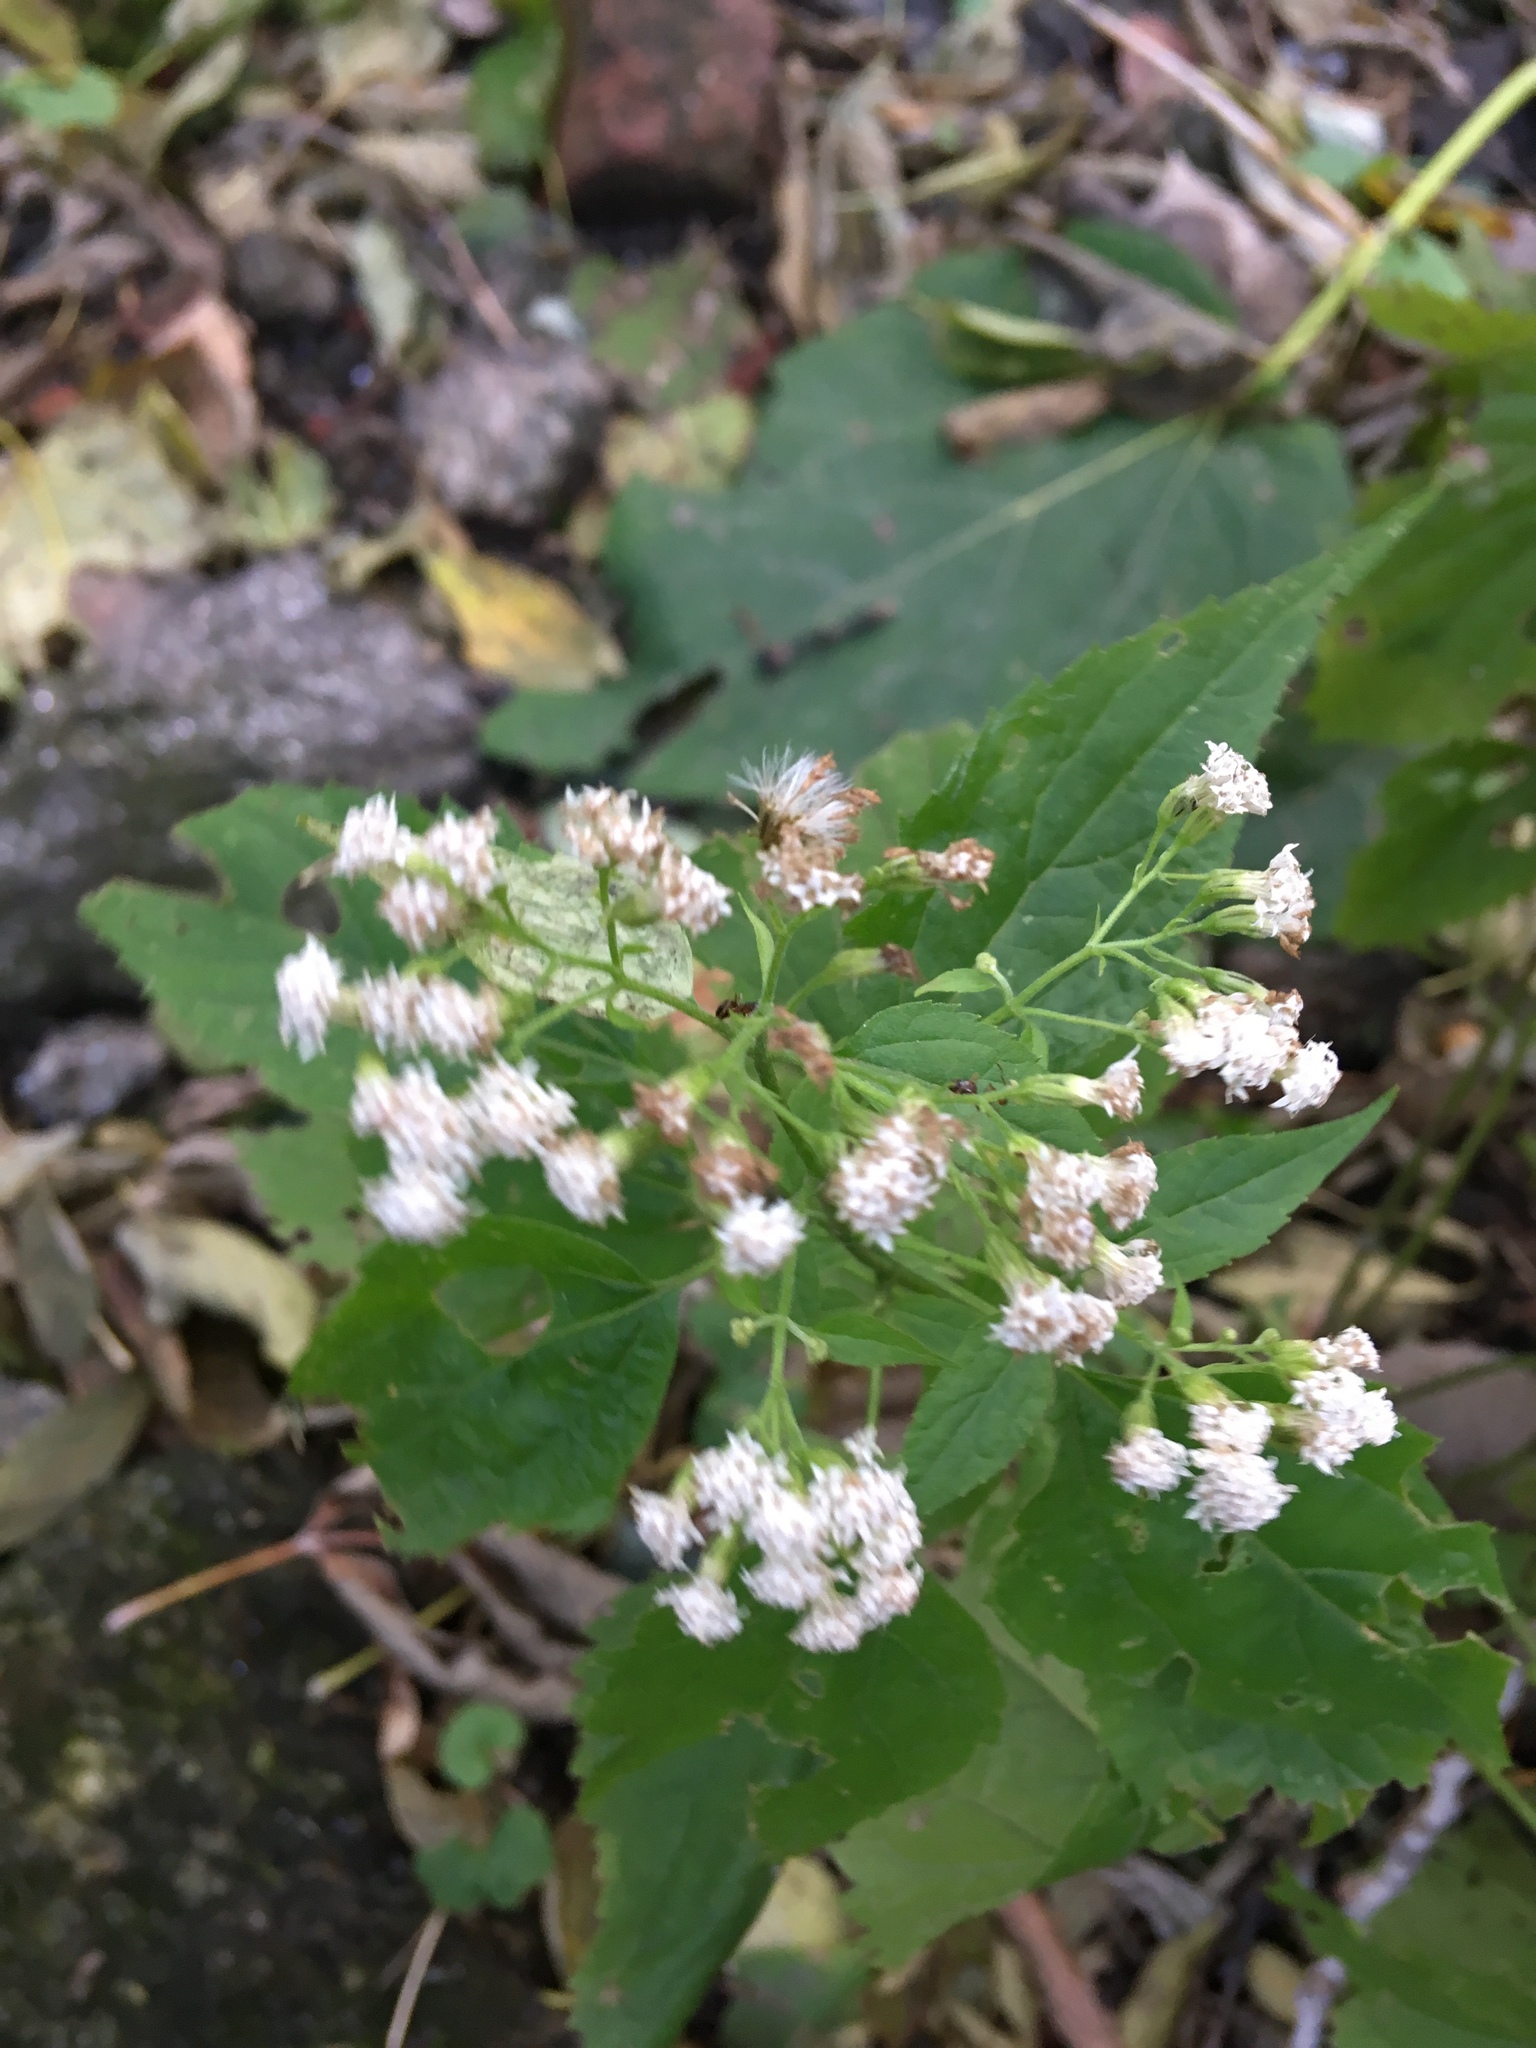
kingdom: Plantae
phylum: Tracheophyta
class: Magnoliopsida
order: Asterales
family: Asteraceae
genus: Ageratina
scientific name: Ageratina altissima
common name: White snakeroot
